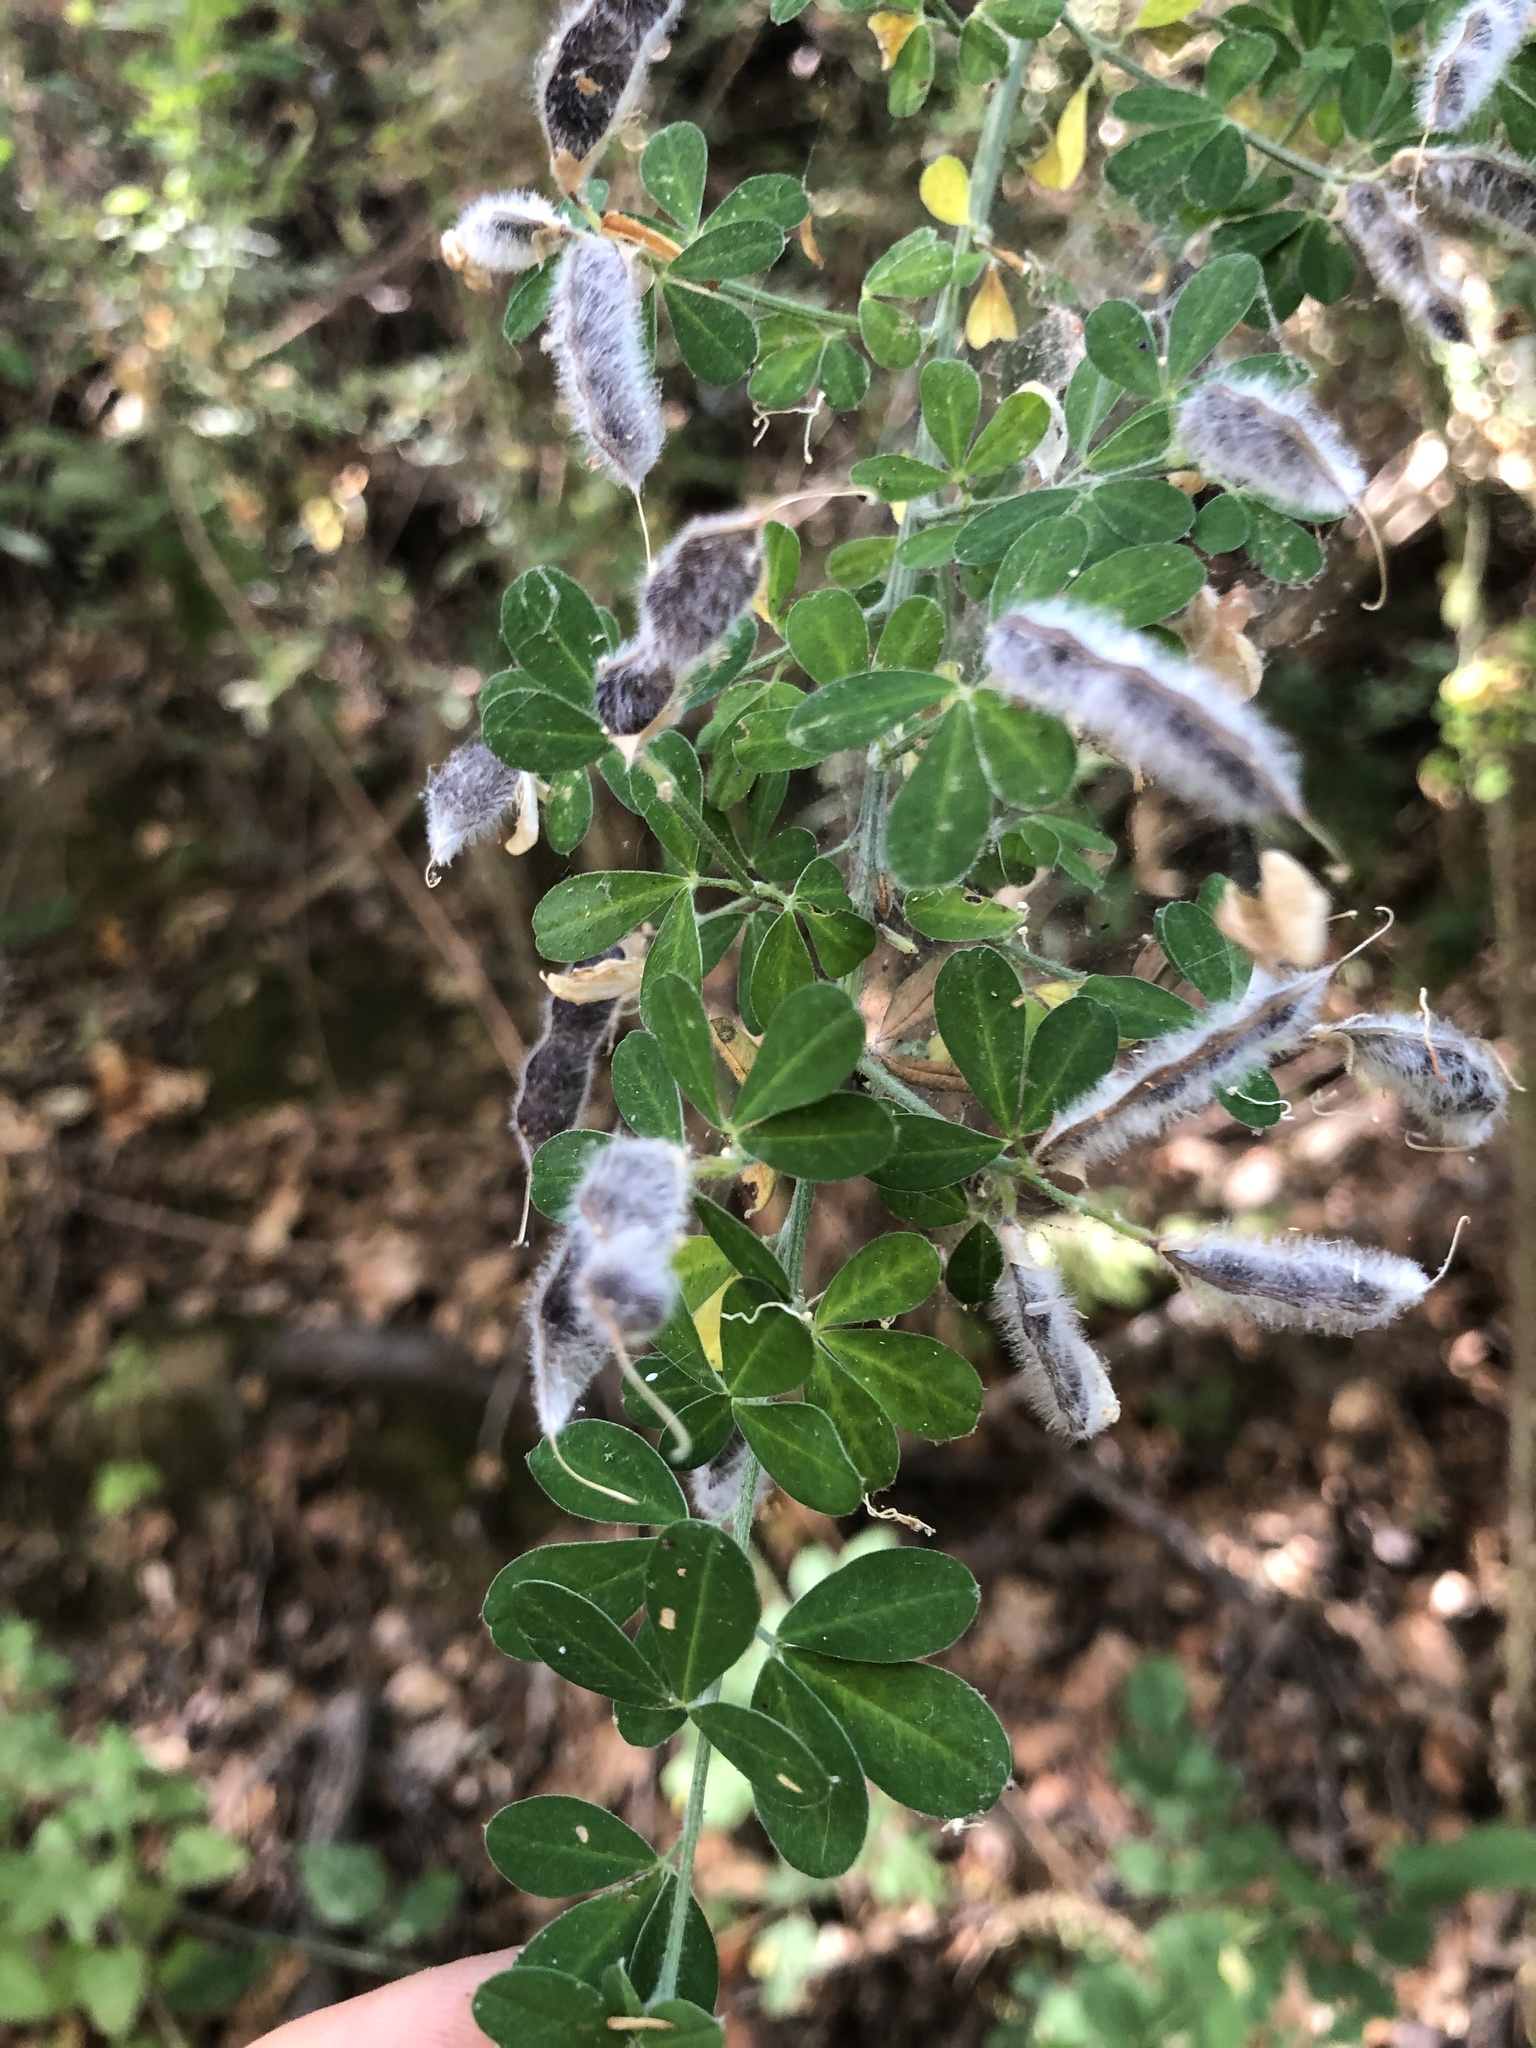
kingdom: Plantae
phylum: Tracheophyta
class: Magnoliopsida
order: Fabales
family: Fabaceae
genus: Genista
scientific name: Genista monspessulana
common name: Montpellier broom
